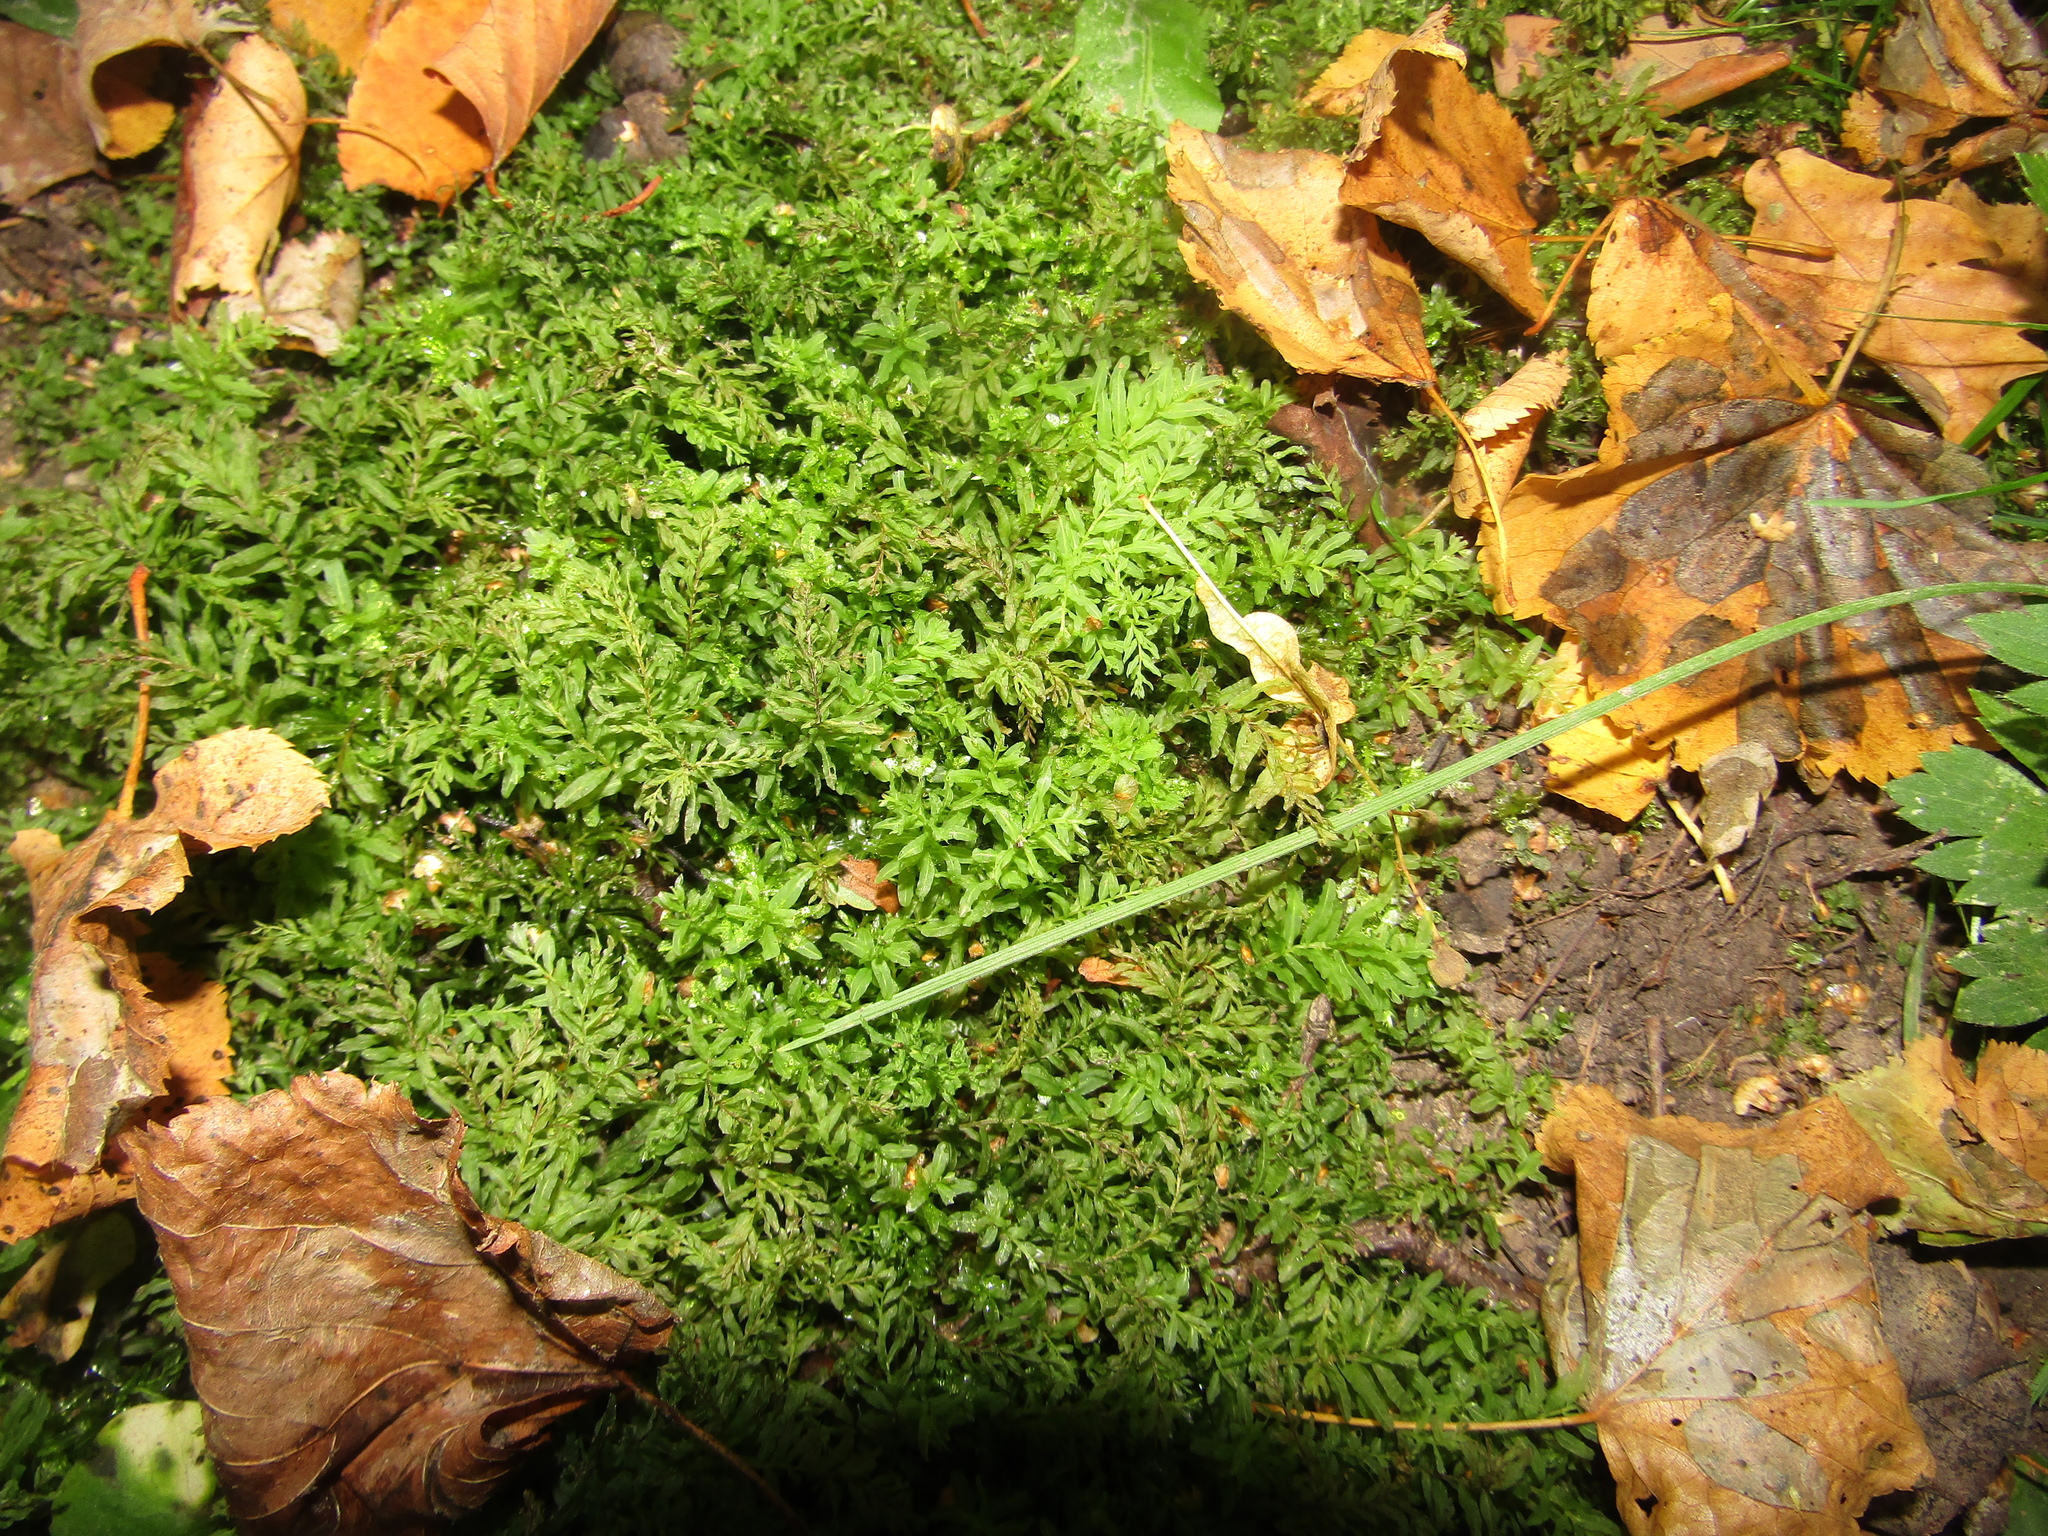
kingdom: Plantae
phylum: Bryophyta
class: Bryopsida
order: Bryales
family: Mniaceae
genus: Plagiomnium
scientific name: Plagiomnium undulatum
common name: Hart's-tongue thyme-moss
